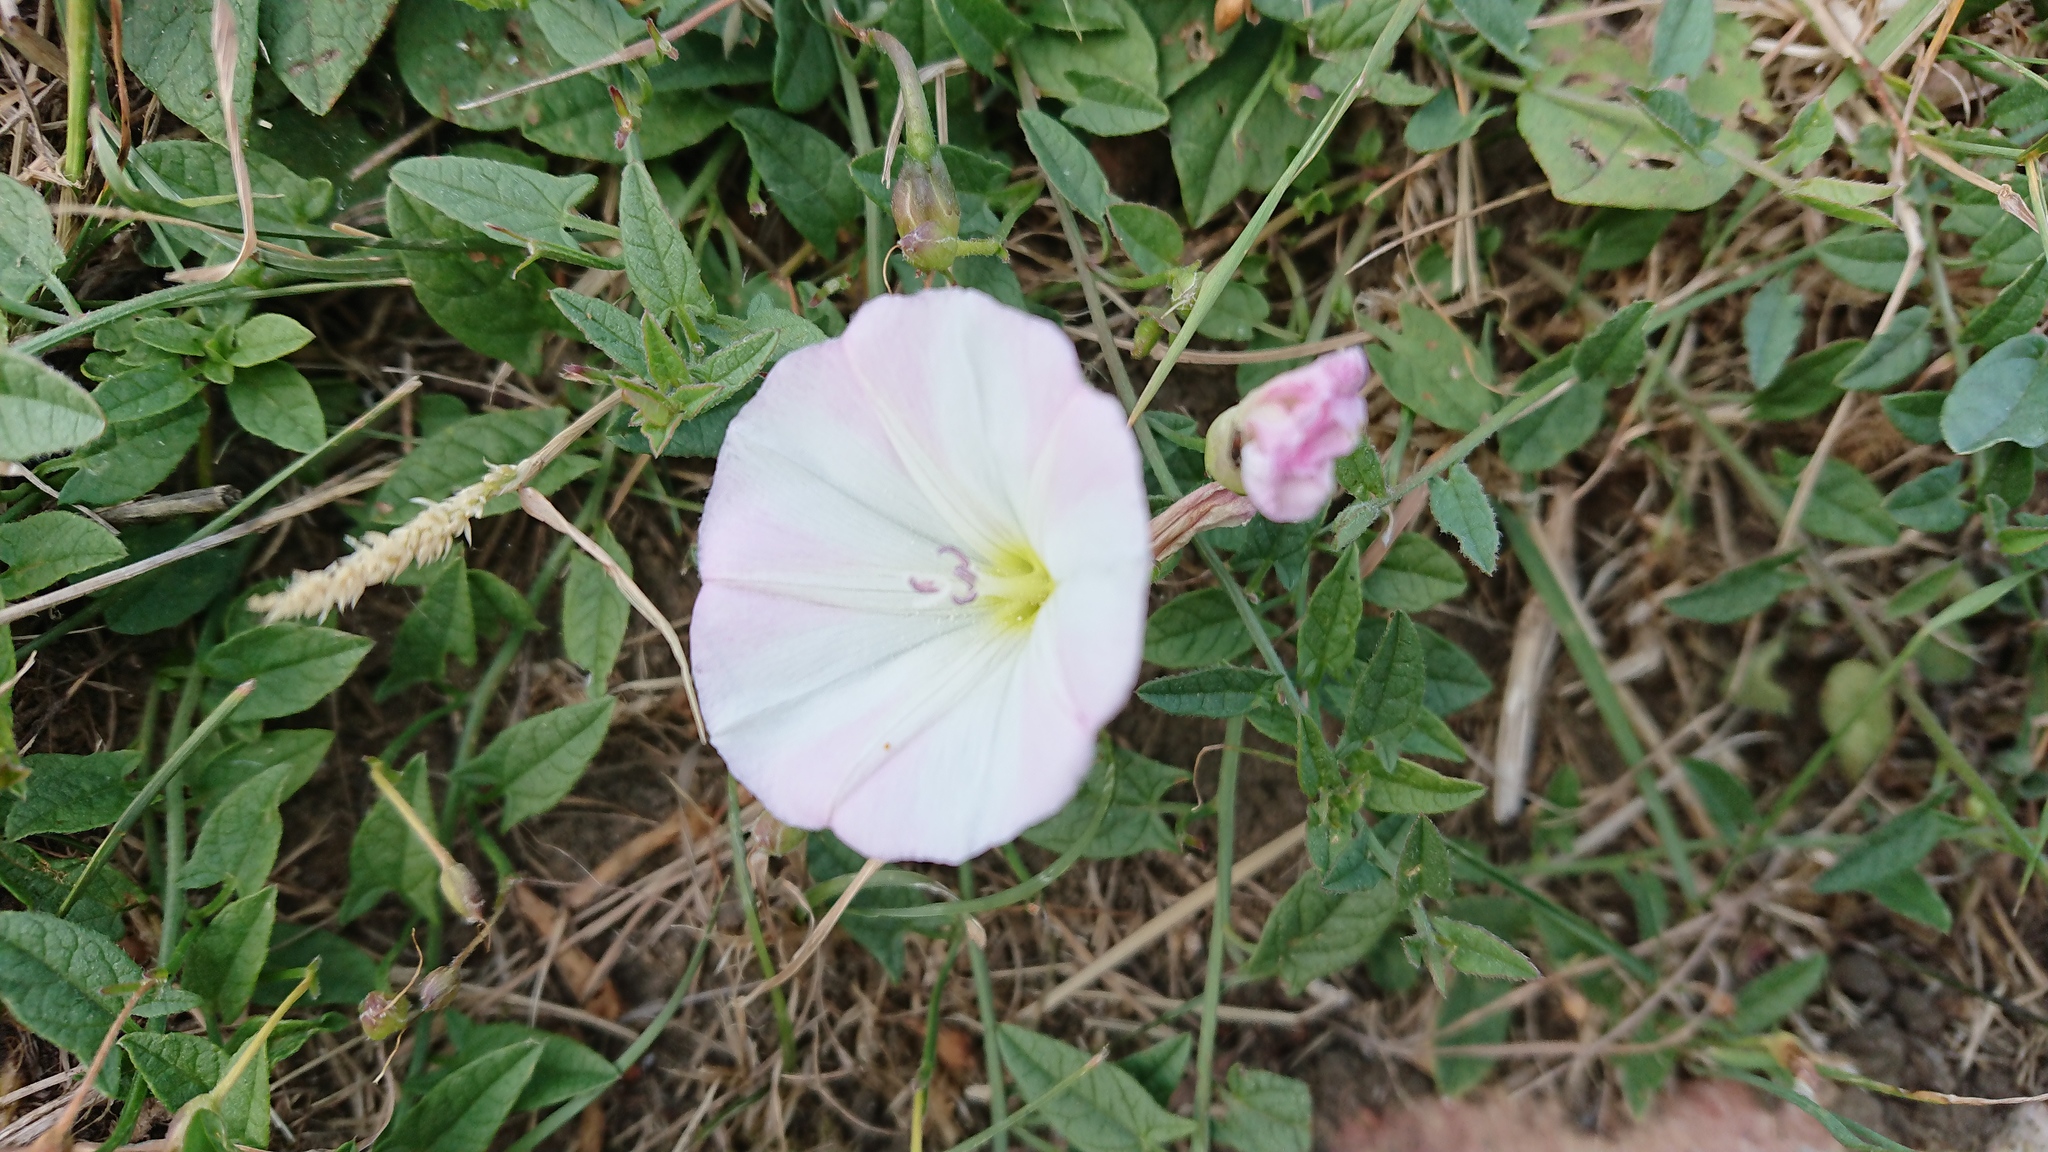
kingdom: Plantae
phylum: Tracheophyta
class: Magnoliopsida
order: Solanales
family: Convolvulaceae
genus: Convolvulus
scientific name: Convolvulus arvensis
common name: Field bindweed
